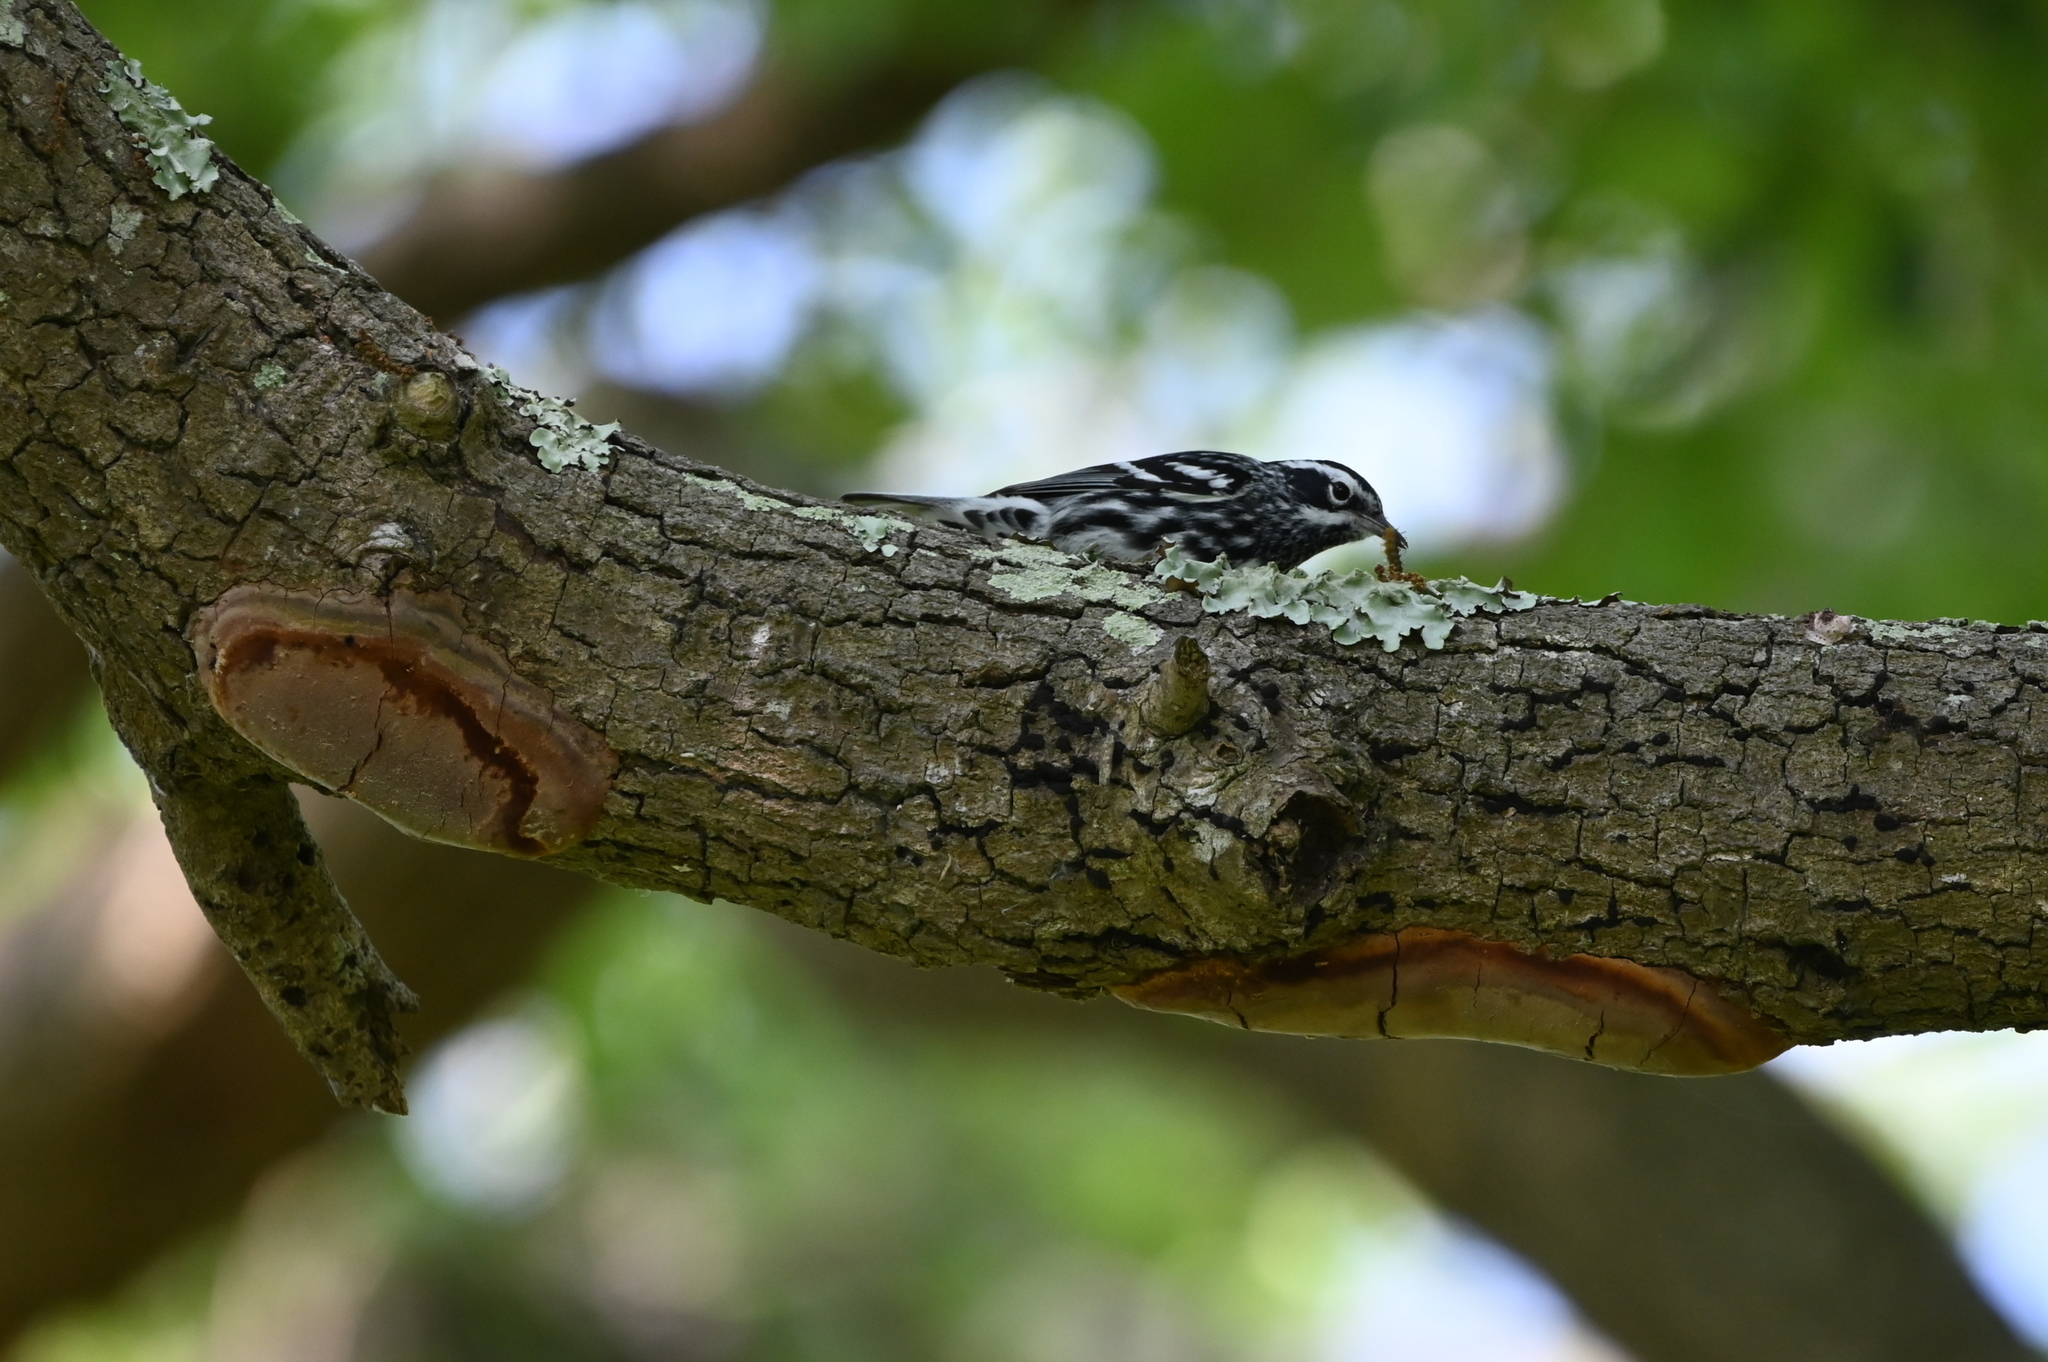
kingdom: Animalia
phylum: Chordata
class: Aves
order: Passeriformes
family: Parulidae
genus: Mniotilta
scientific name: Mniotilta varia
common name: Black-and-white warbler
